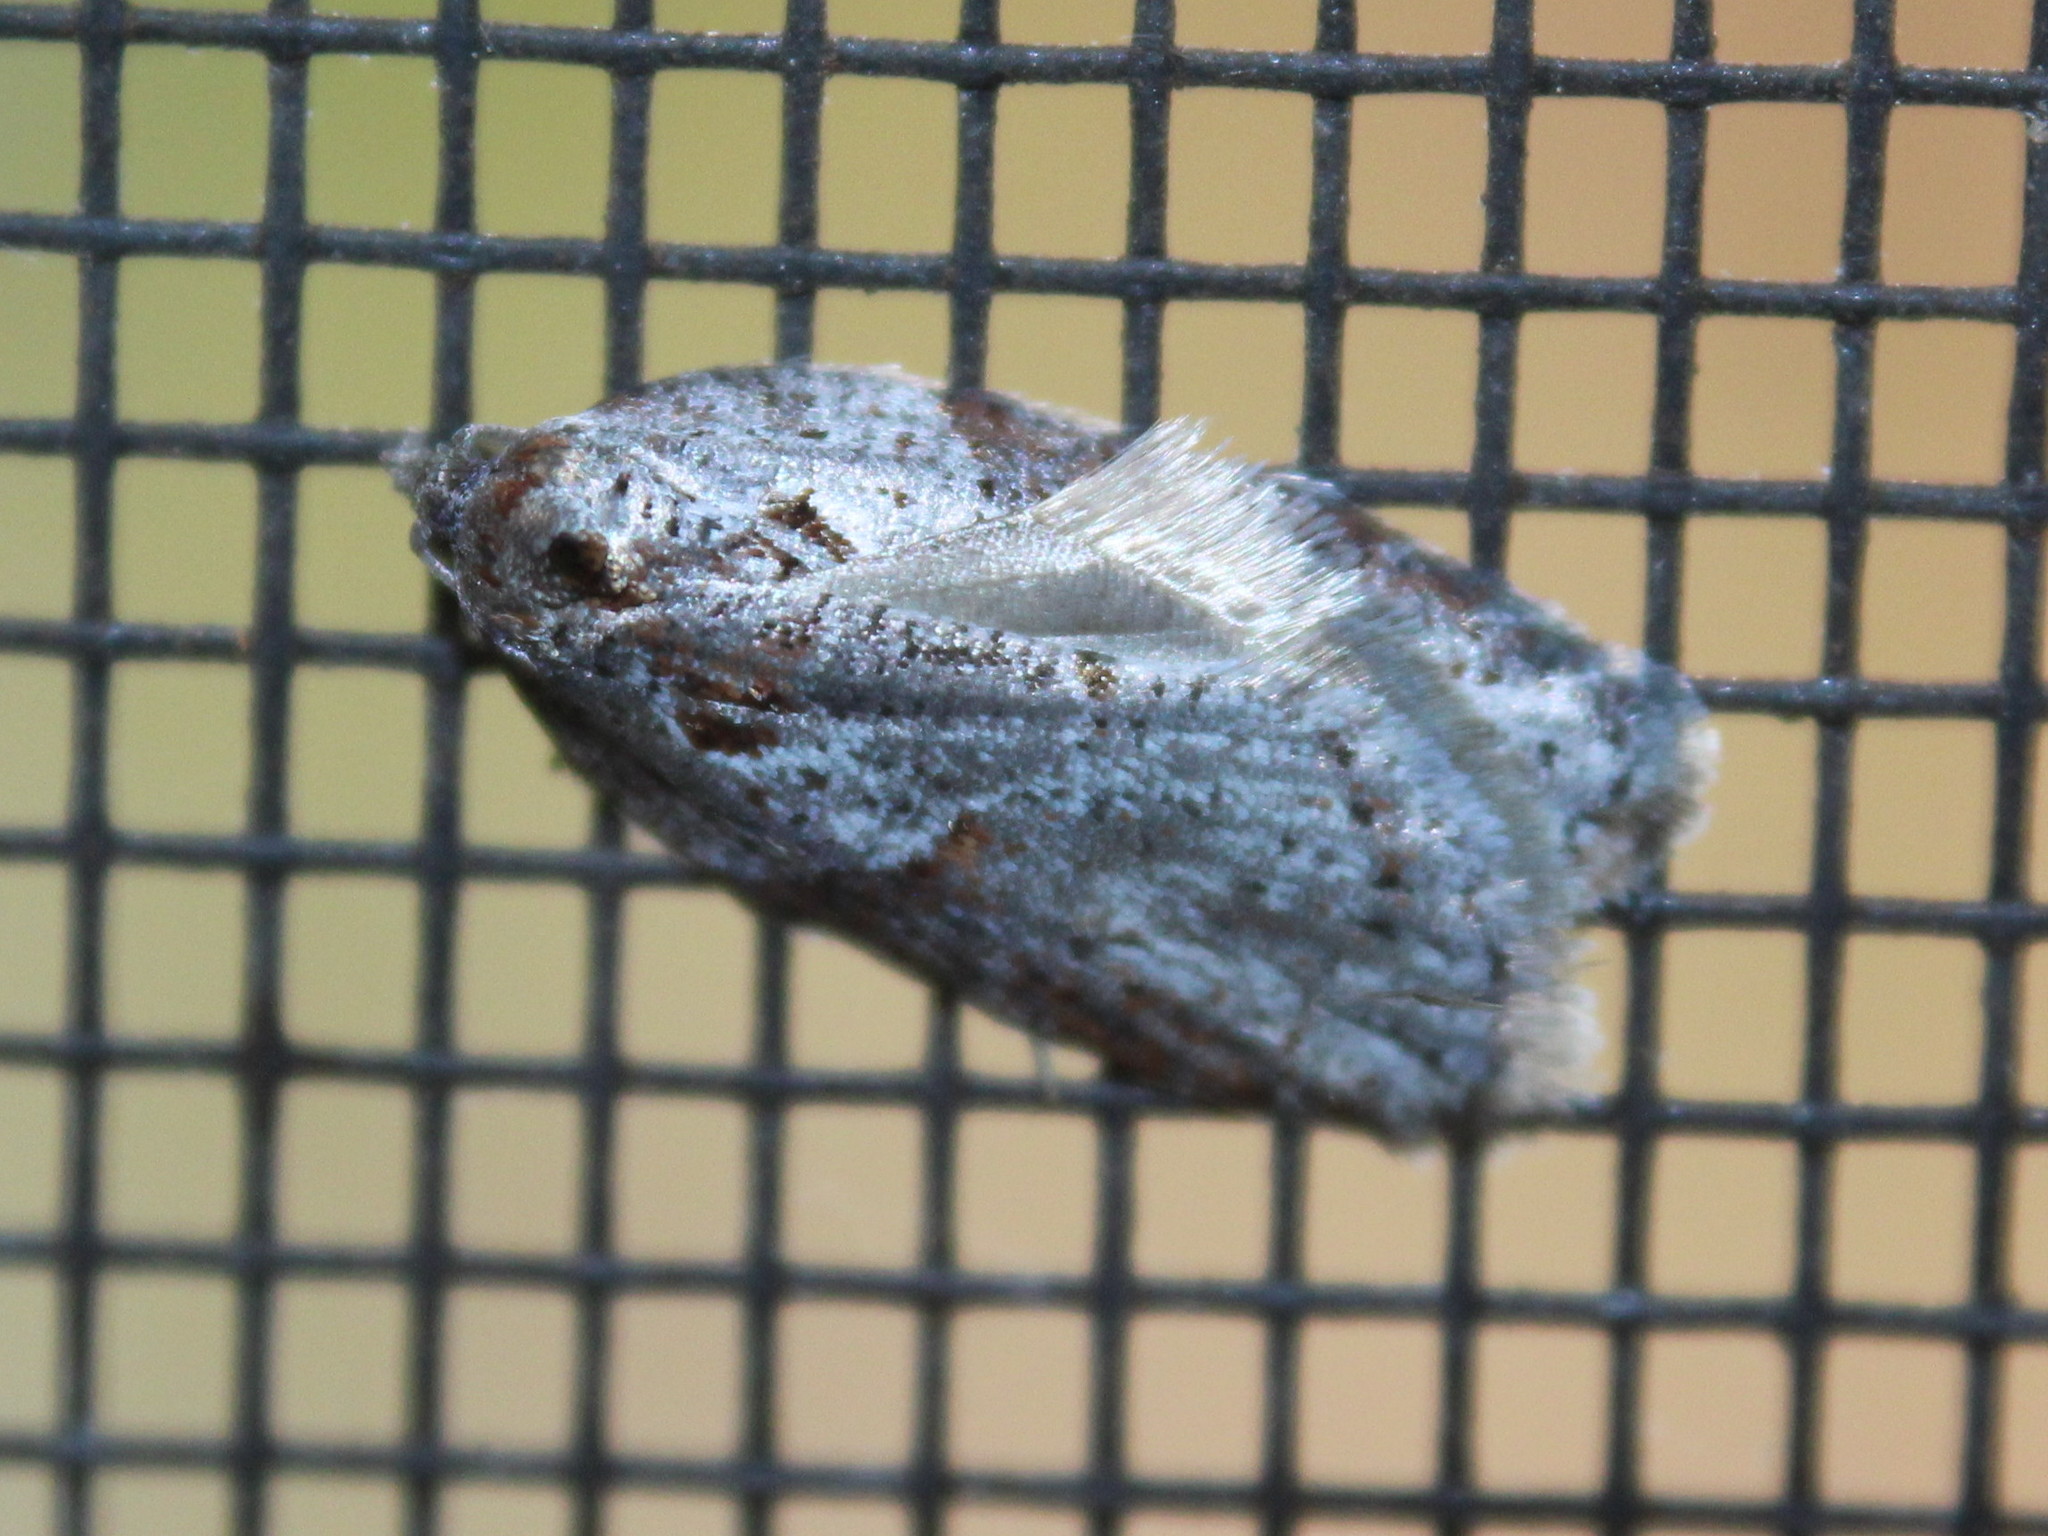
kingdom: Animalia
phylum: Arthropoda
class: Insecta
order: Lepidoptera
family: Tortricidae
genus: Acleris
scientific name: Acleris maculidorsana
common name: Stained-back leafroller moth
